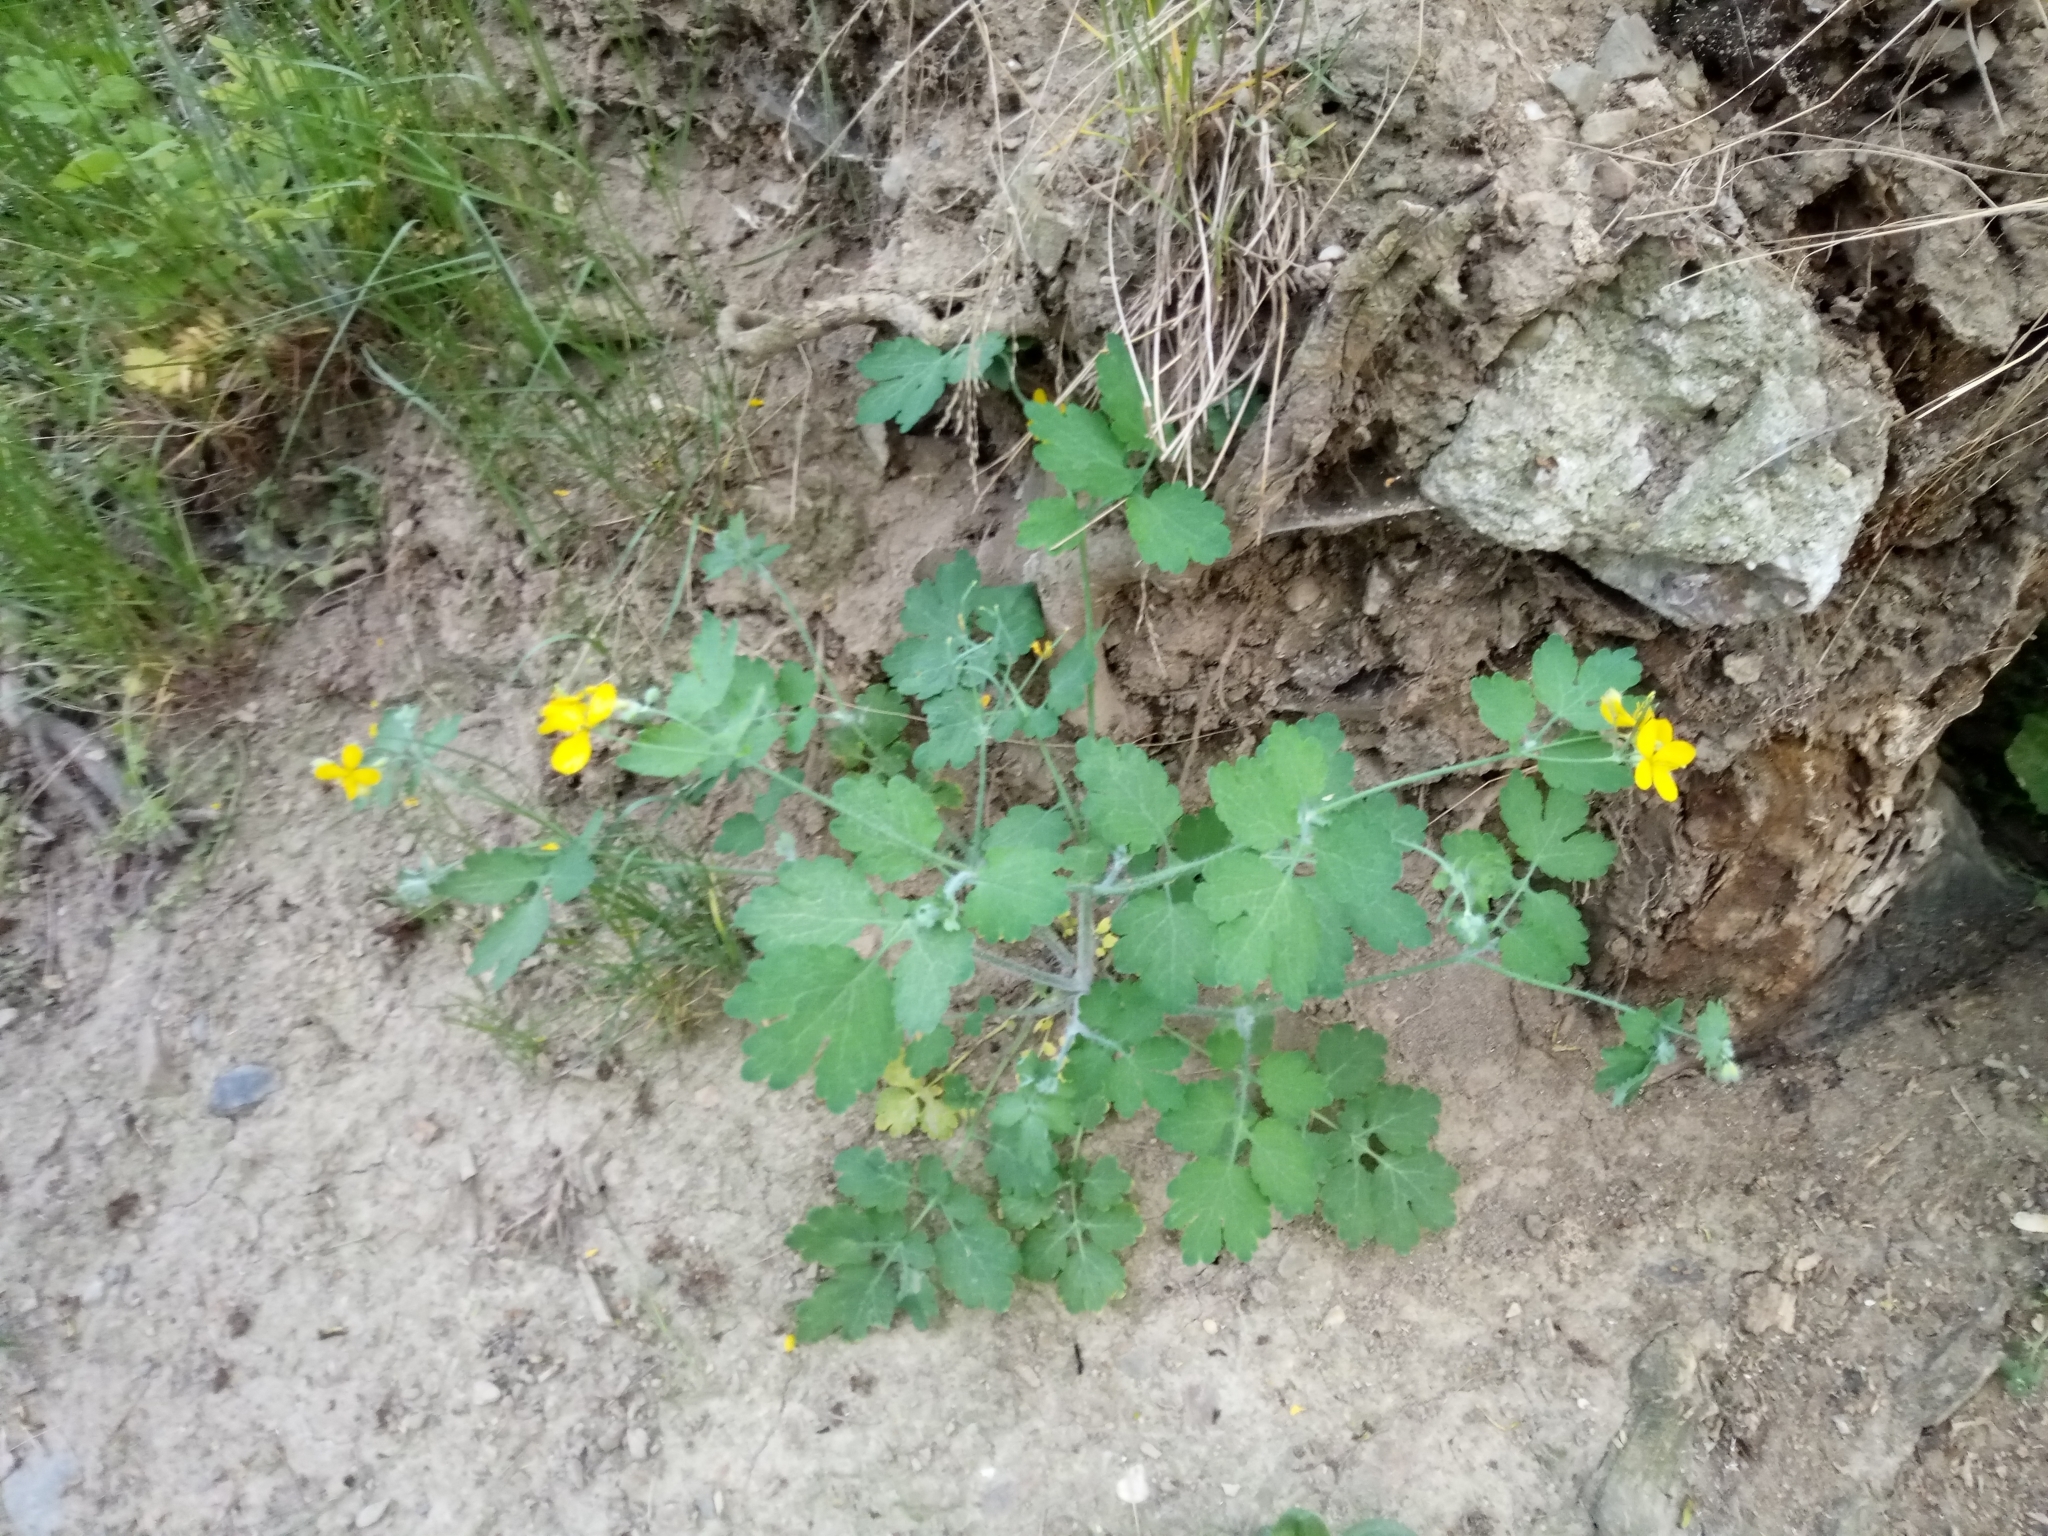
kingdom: Plantae
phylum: Tracheophyta
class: Magnoliopsida
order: Ranunculales
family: Papaveraceae
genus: Chelidonium
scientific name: Chelidonium majus
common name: Greater celandine
